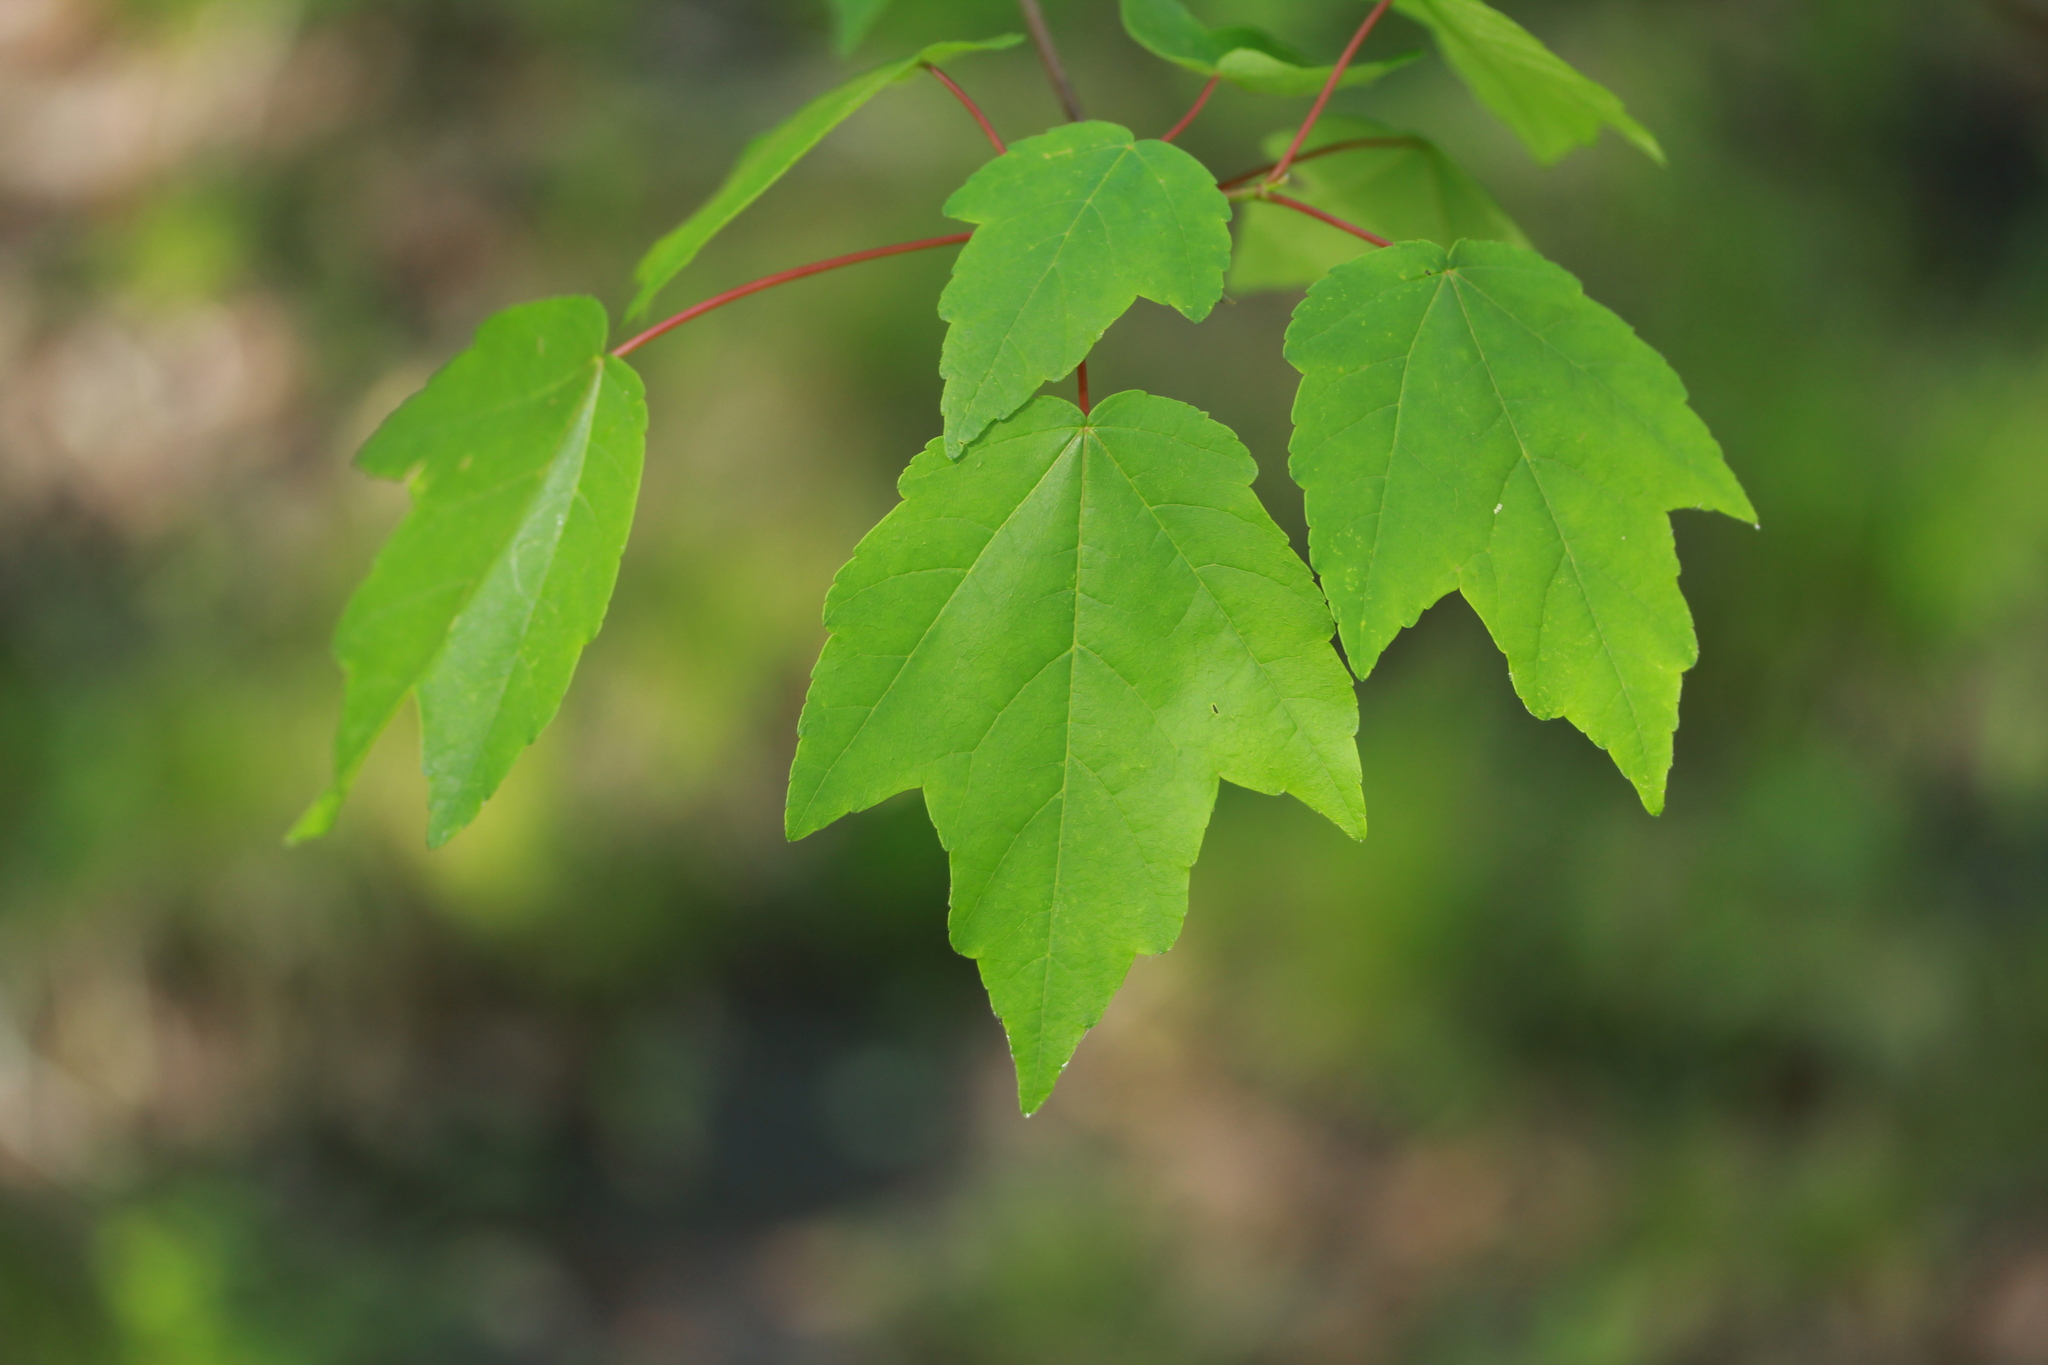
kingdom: Plantae
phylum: Tracheophyta
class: Magnoliopsida
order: Sapindales
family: Sapindaceae
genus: Acer
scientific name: Acer rubrum
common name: Red maple
